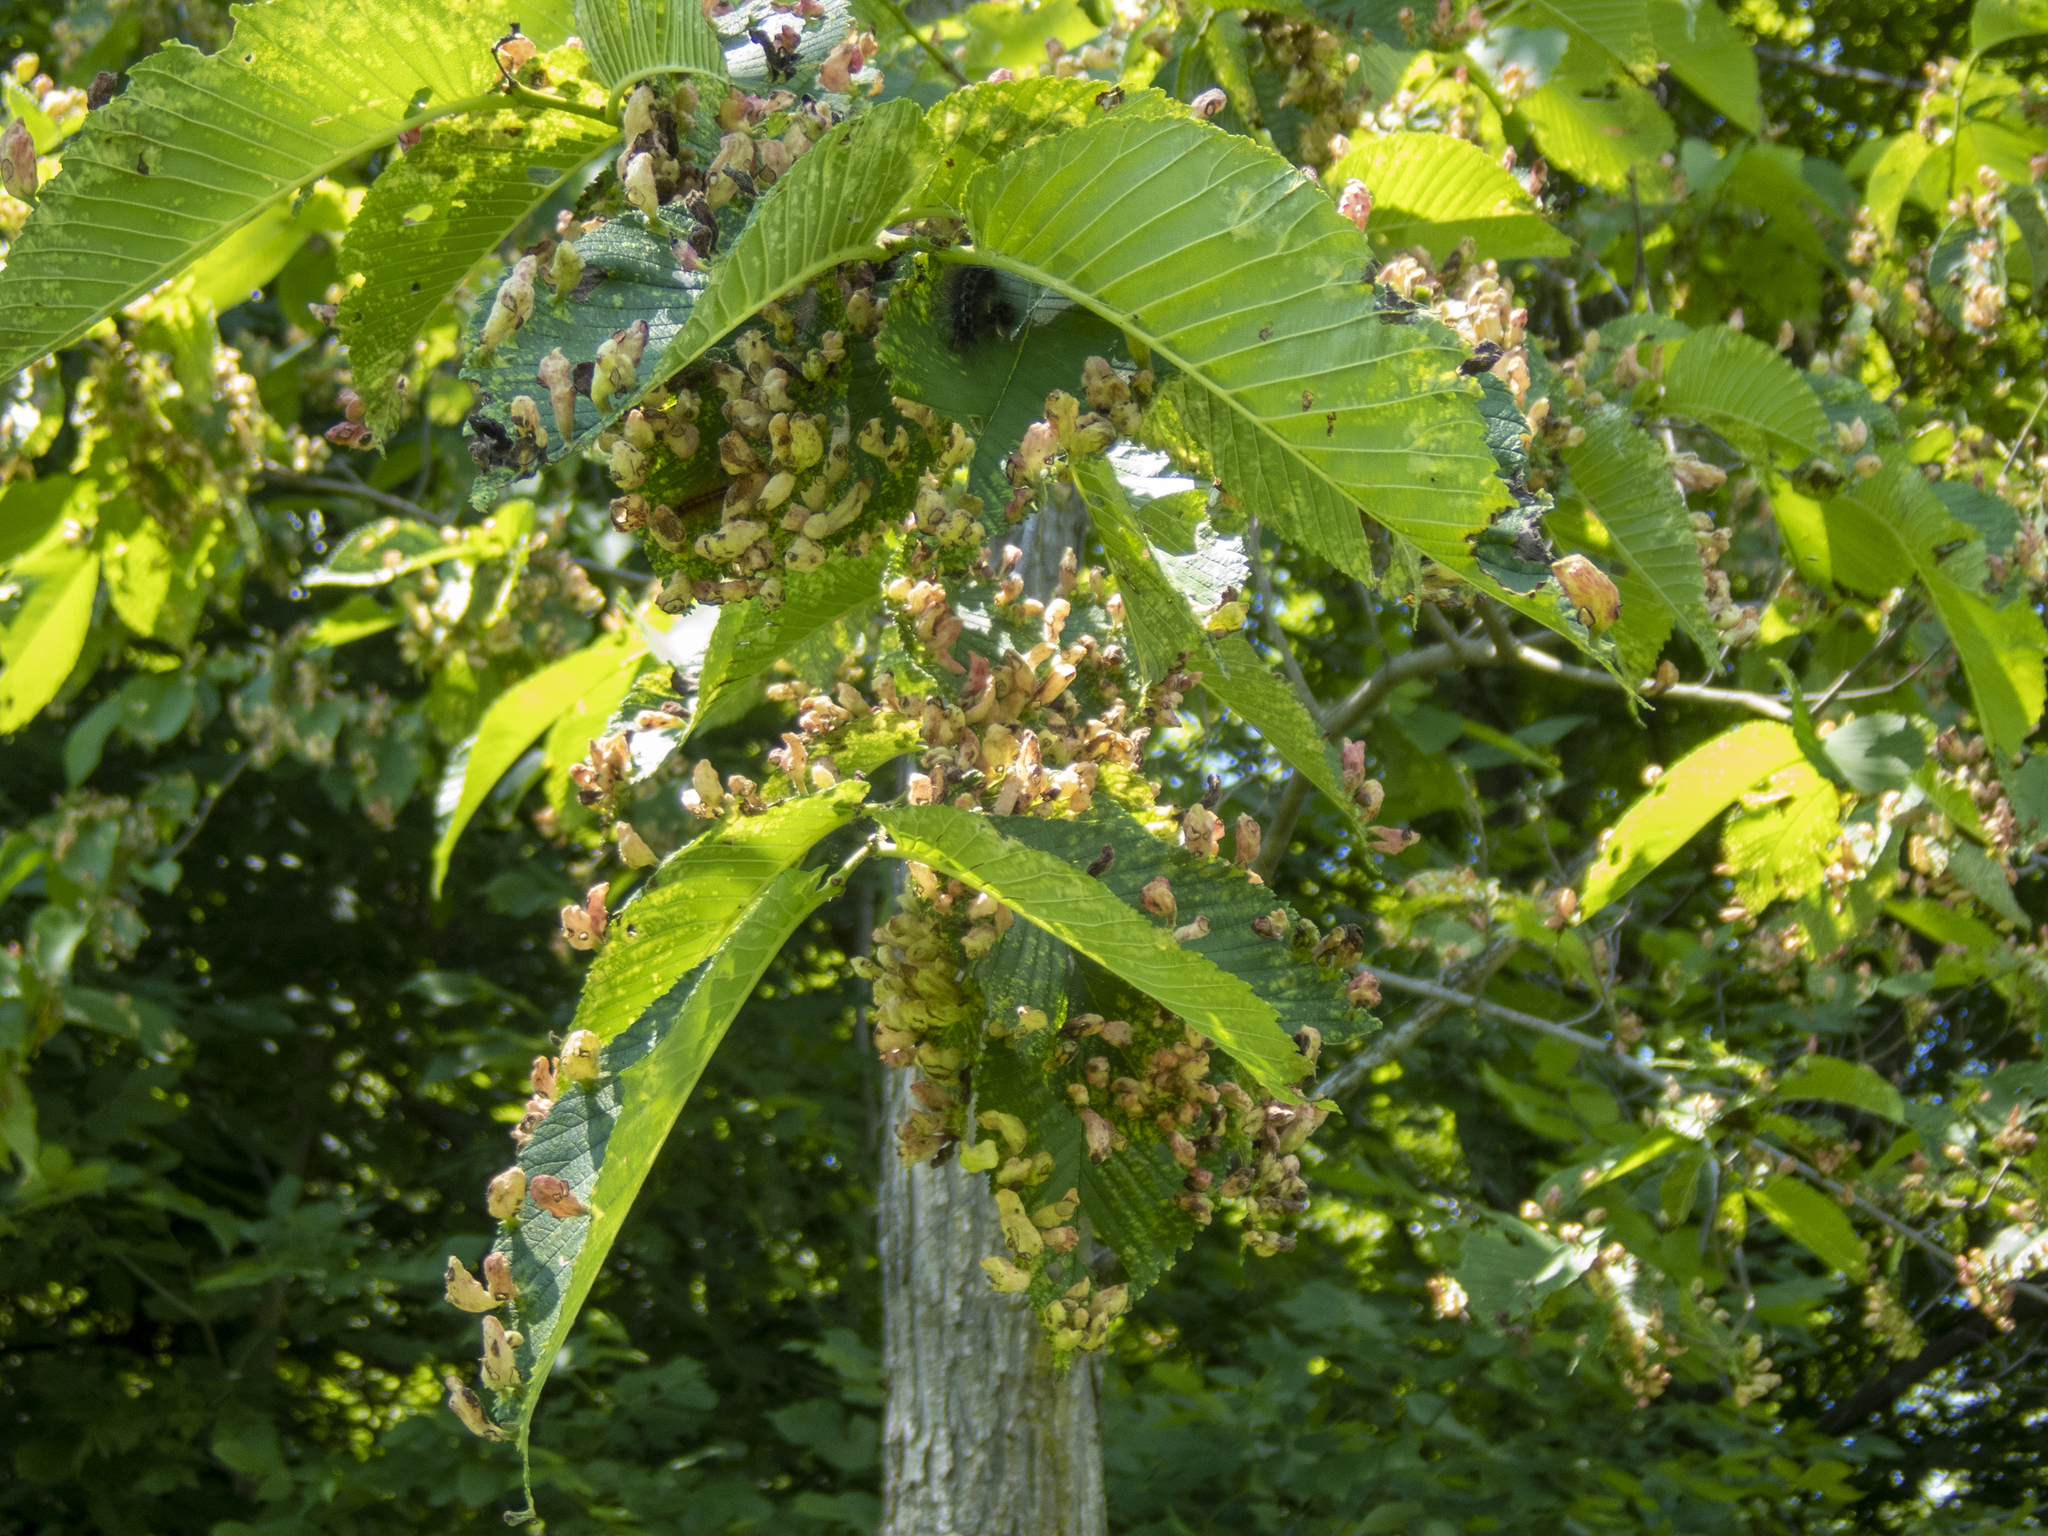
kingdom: Animalia
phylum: Arthropoda
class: Insecta
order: Hemiptera
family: Aphididae
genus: Tetraneura
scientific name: Tetraneura nigriabdominalis
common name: Aphid
